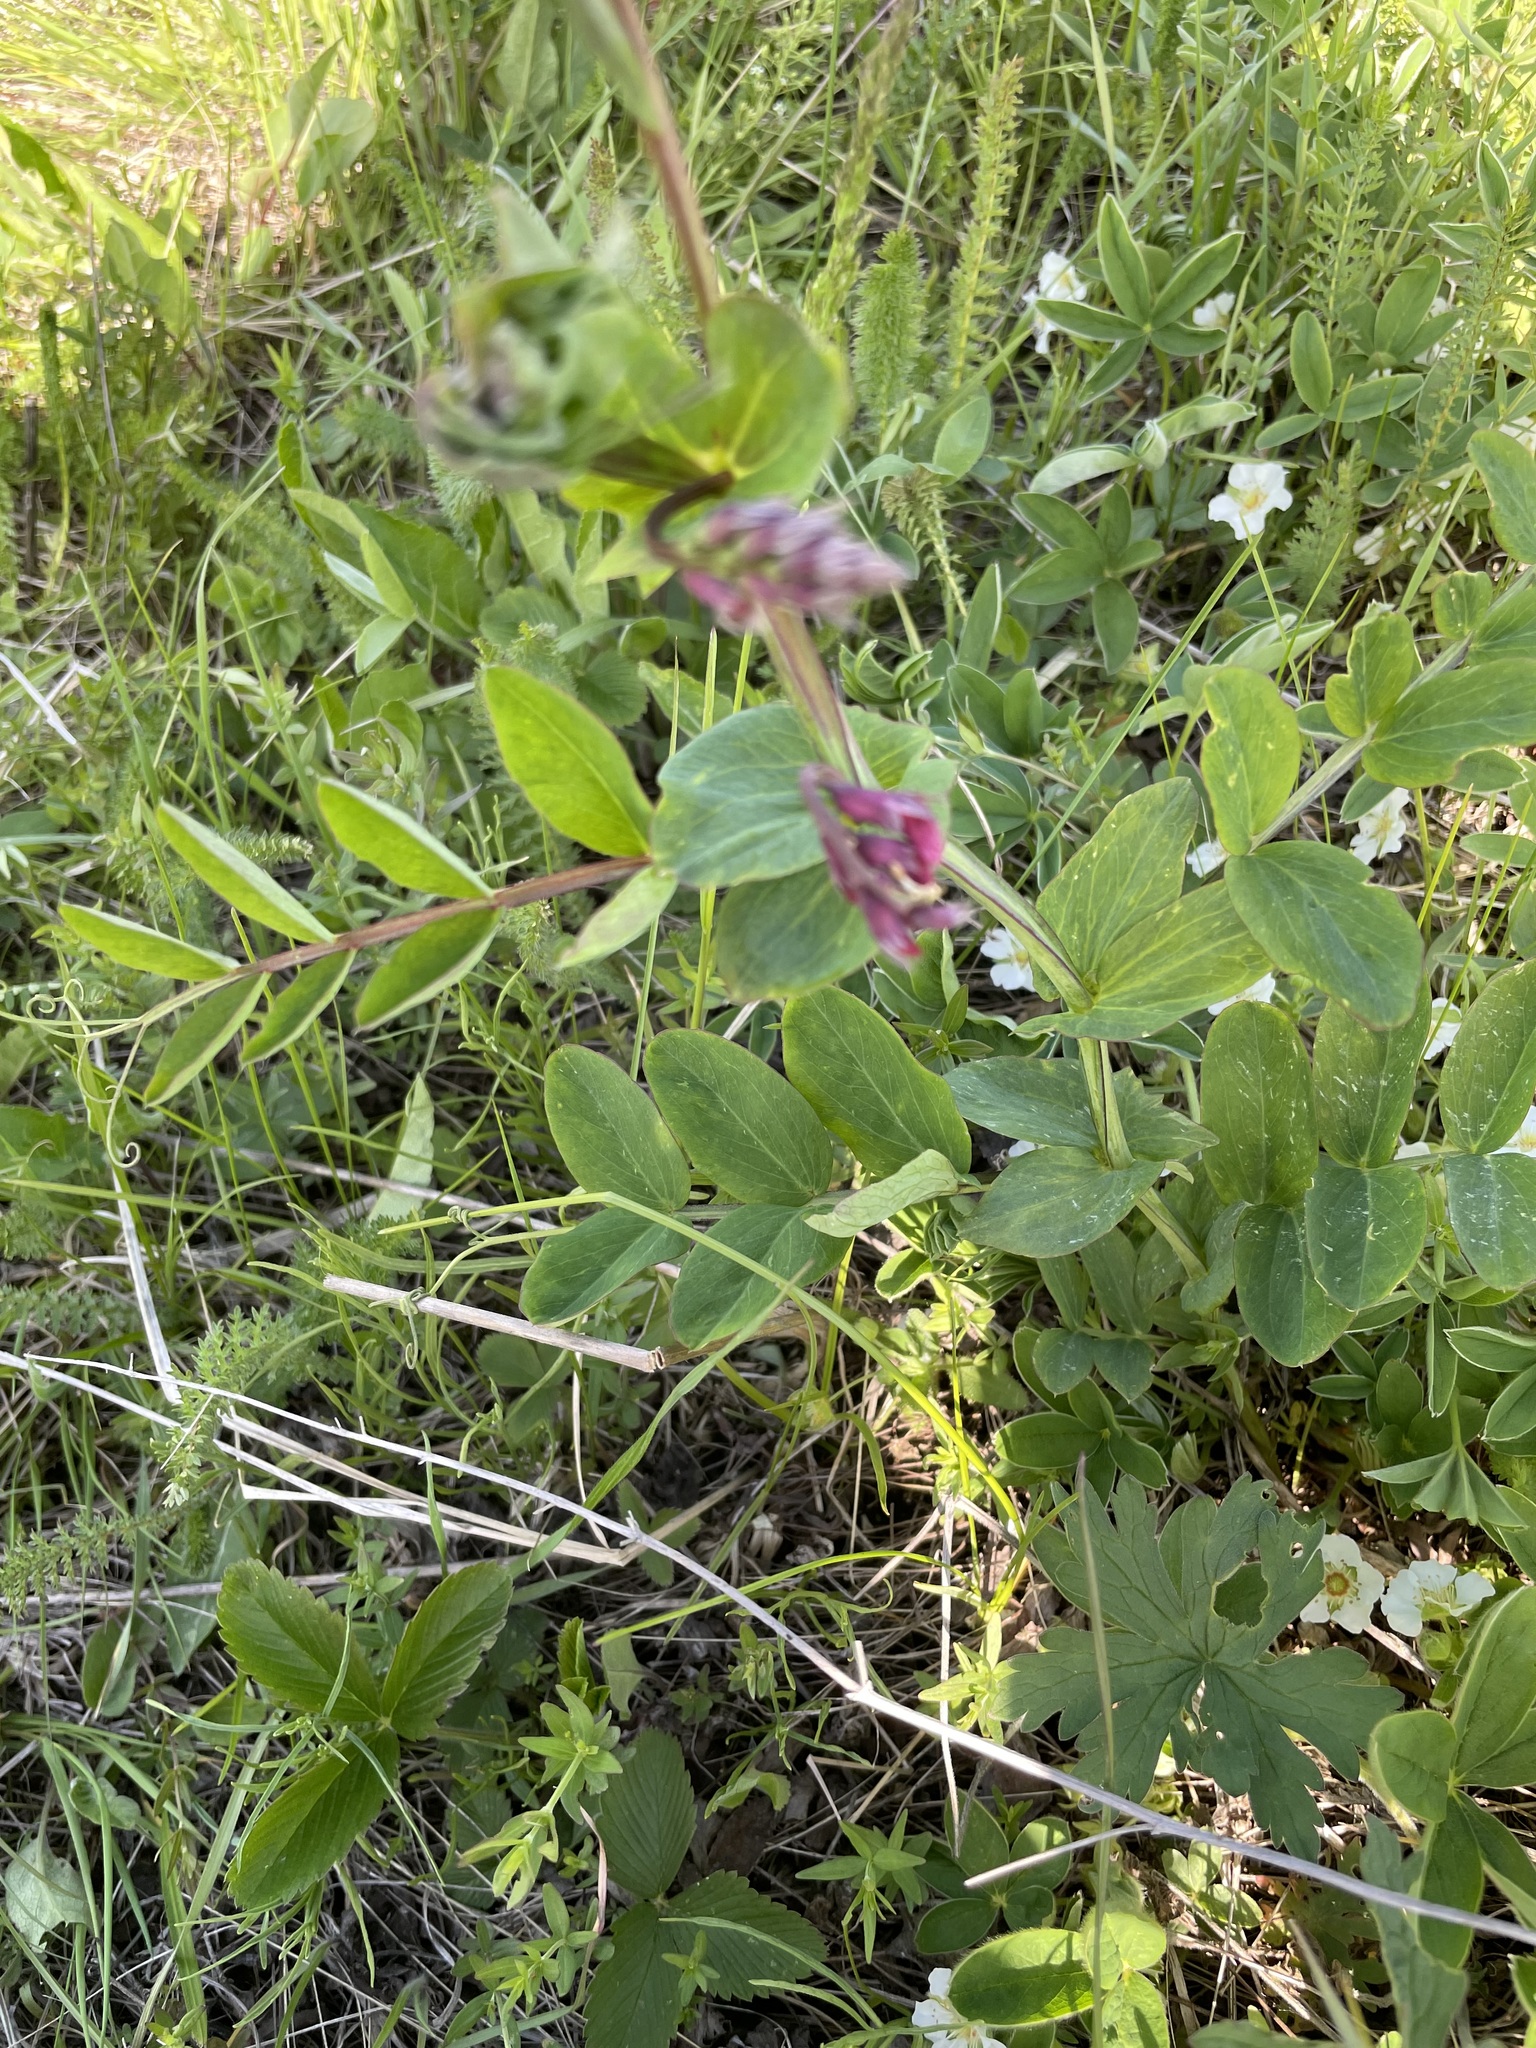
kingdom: Plantae
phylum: Tracheophyta
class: Magnoliopsida
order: Fabales
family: Fabaceae
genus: Lathyrus
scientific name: Lathyrus pisiformis
